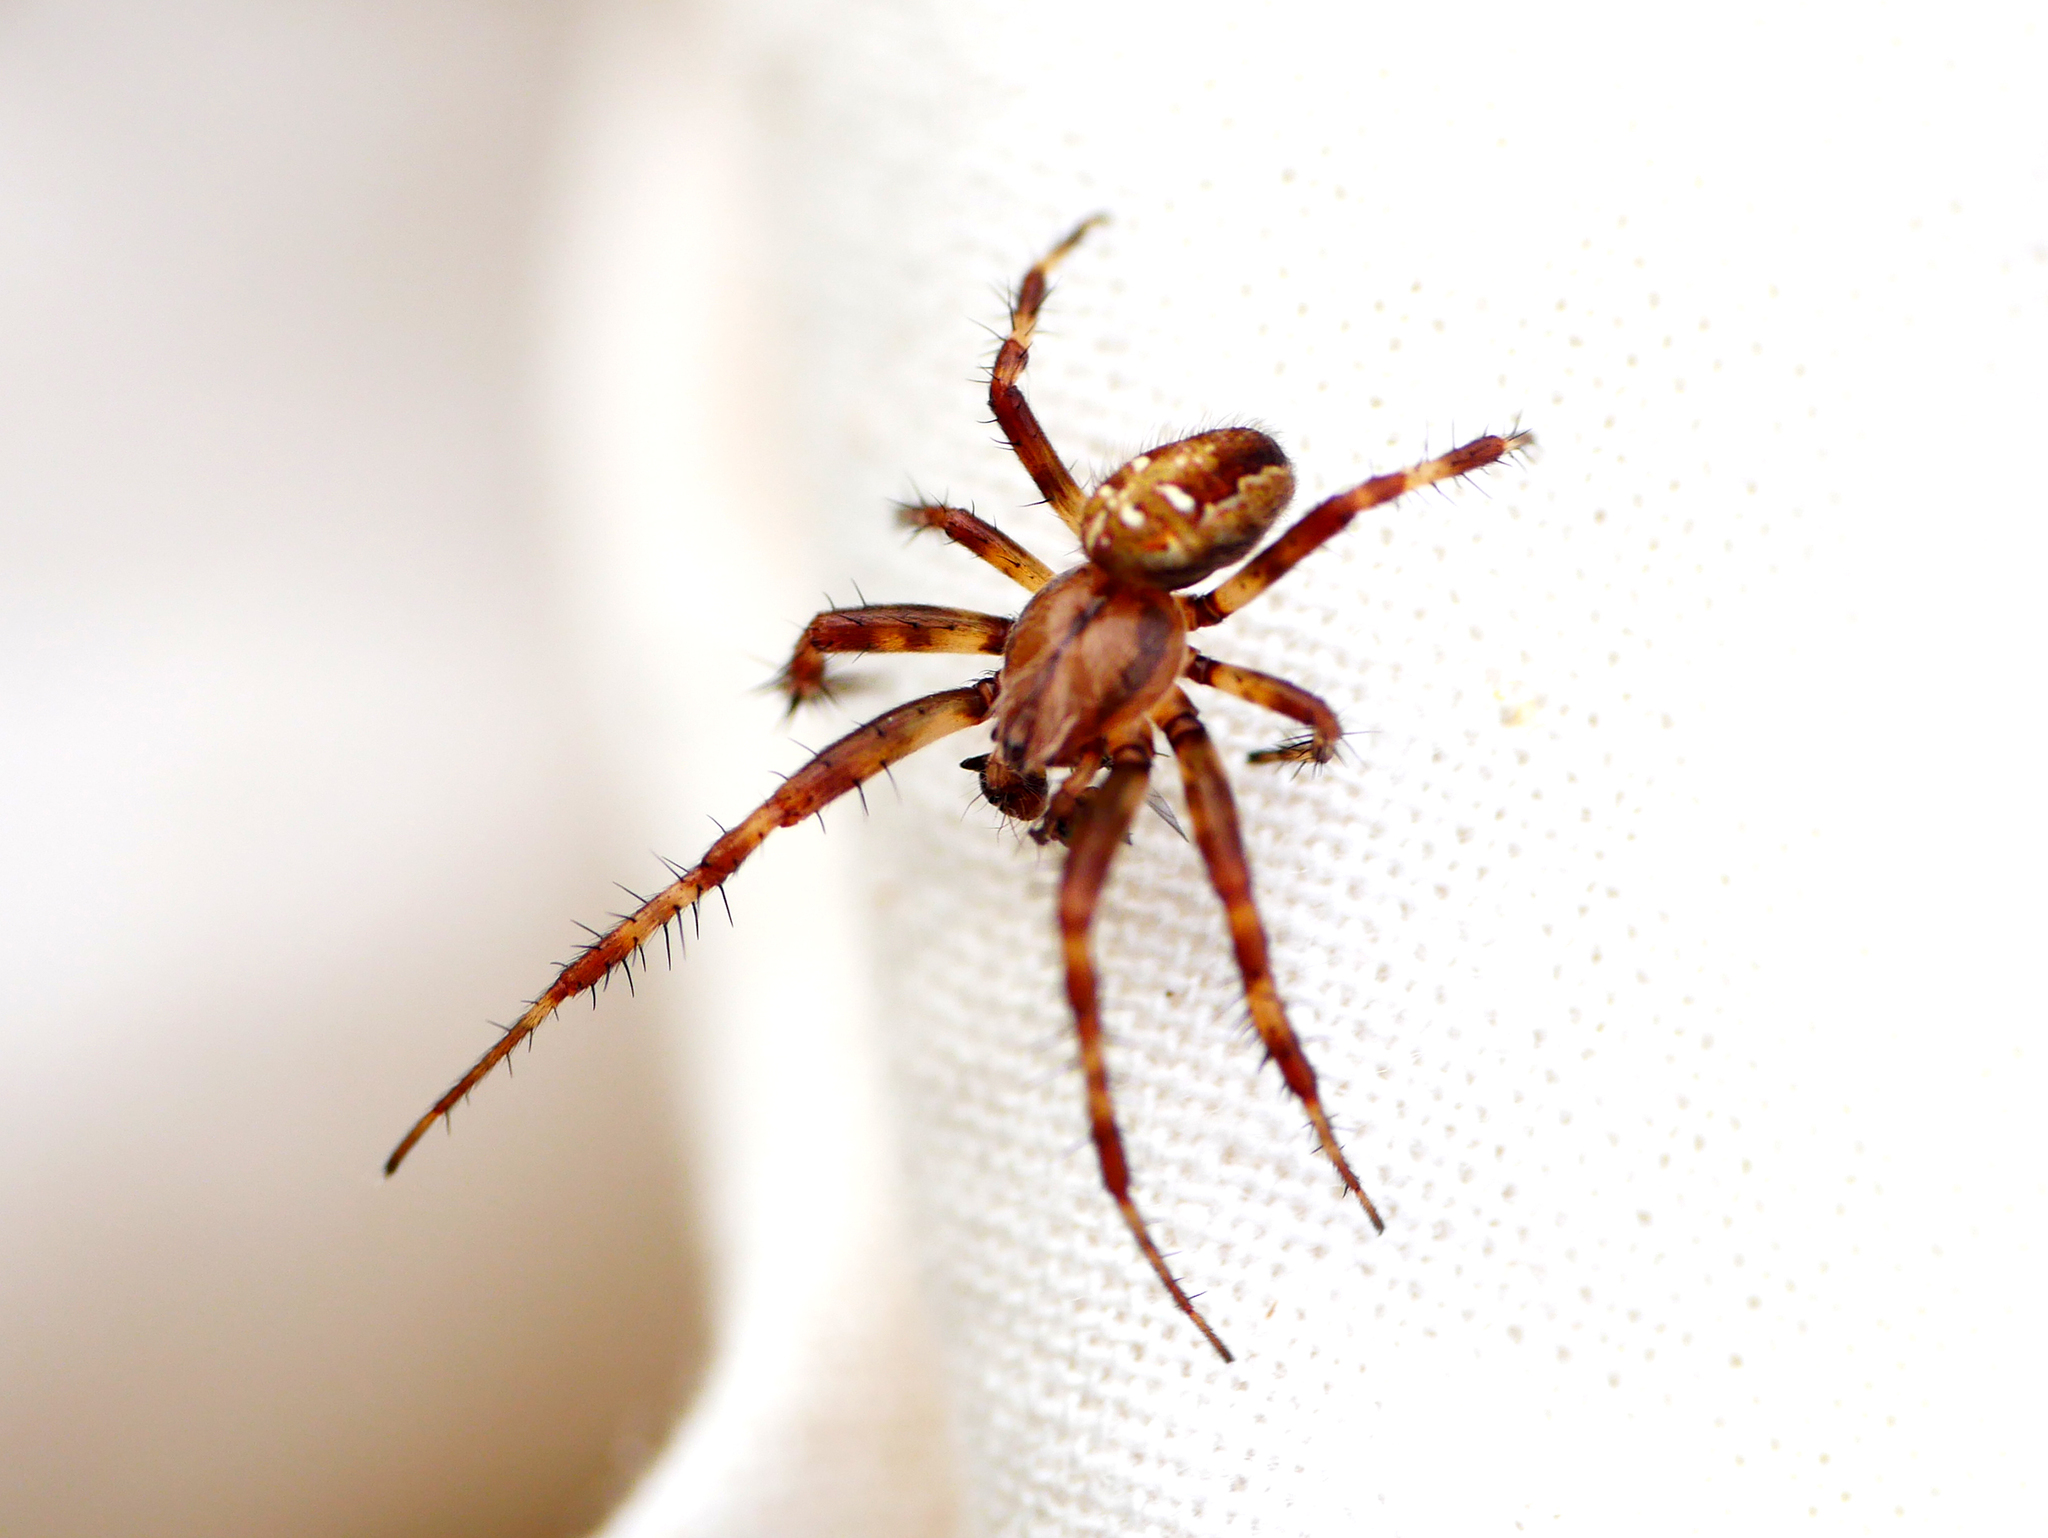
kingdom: Animalia
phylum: Arthropoda
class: Arachnida
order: Araneae
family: Araneidae
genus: Araneus
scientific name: Araneus quadratus
